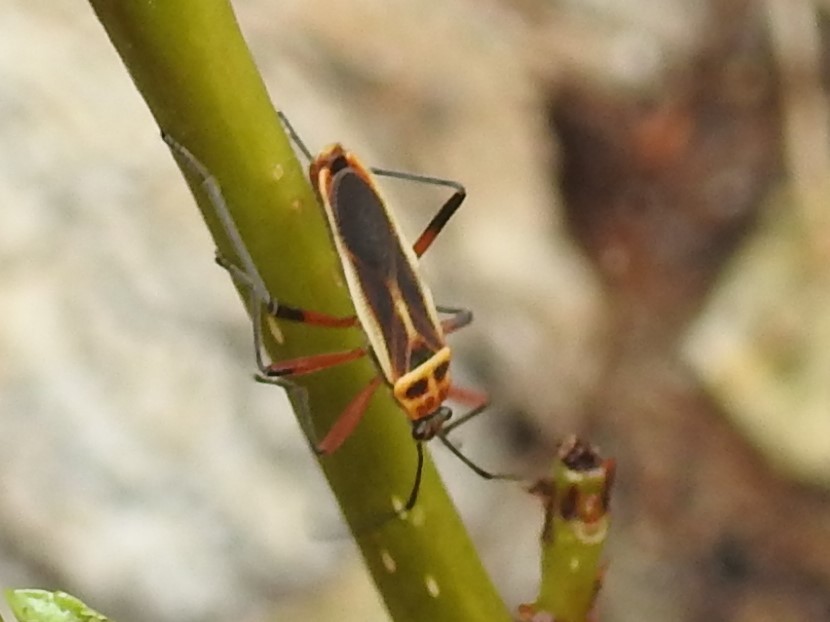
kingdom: Animalia
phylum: Arthropoda
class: Insecta
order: Hemiptera
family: Largidae
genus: Stenomacra
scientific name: Stenomacra marginella
